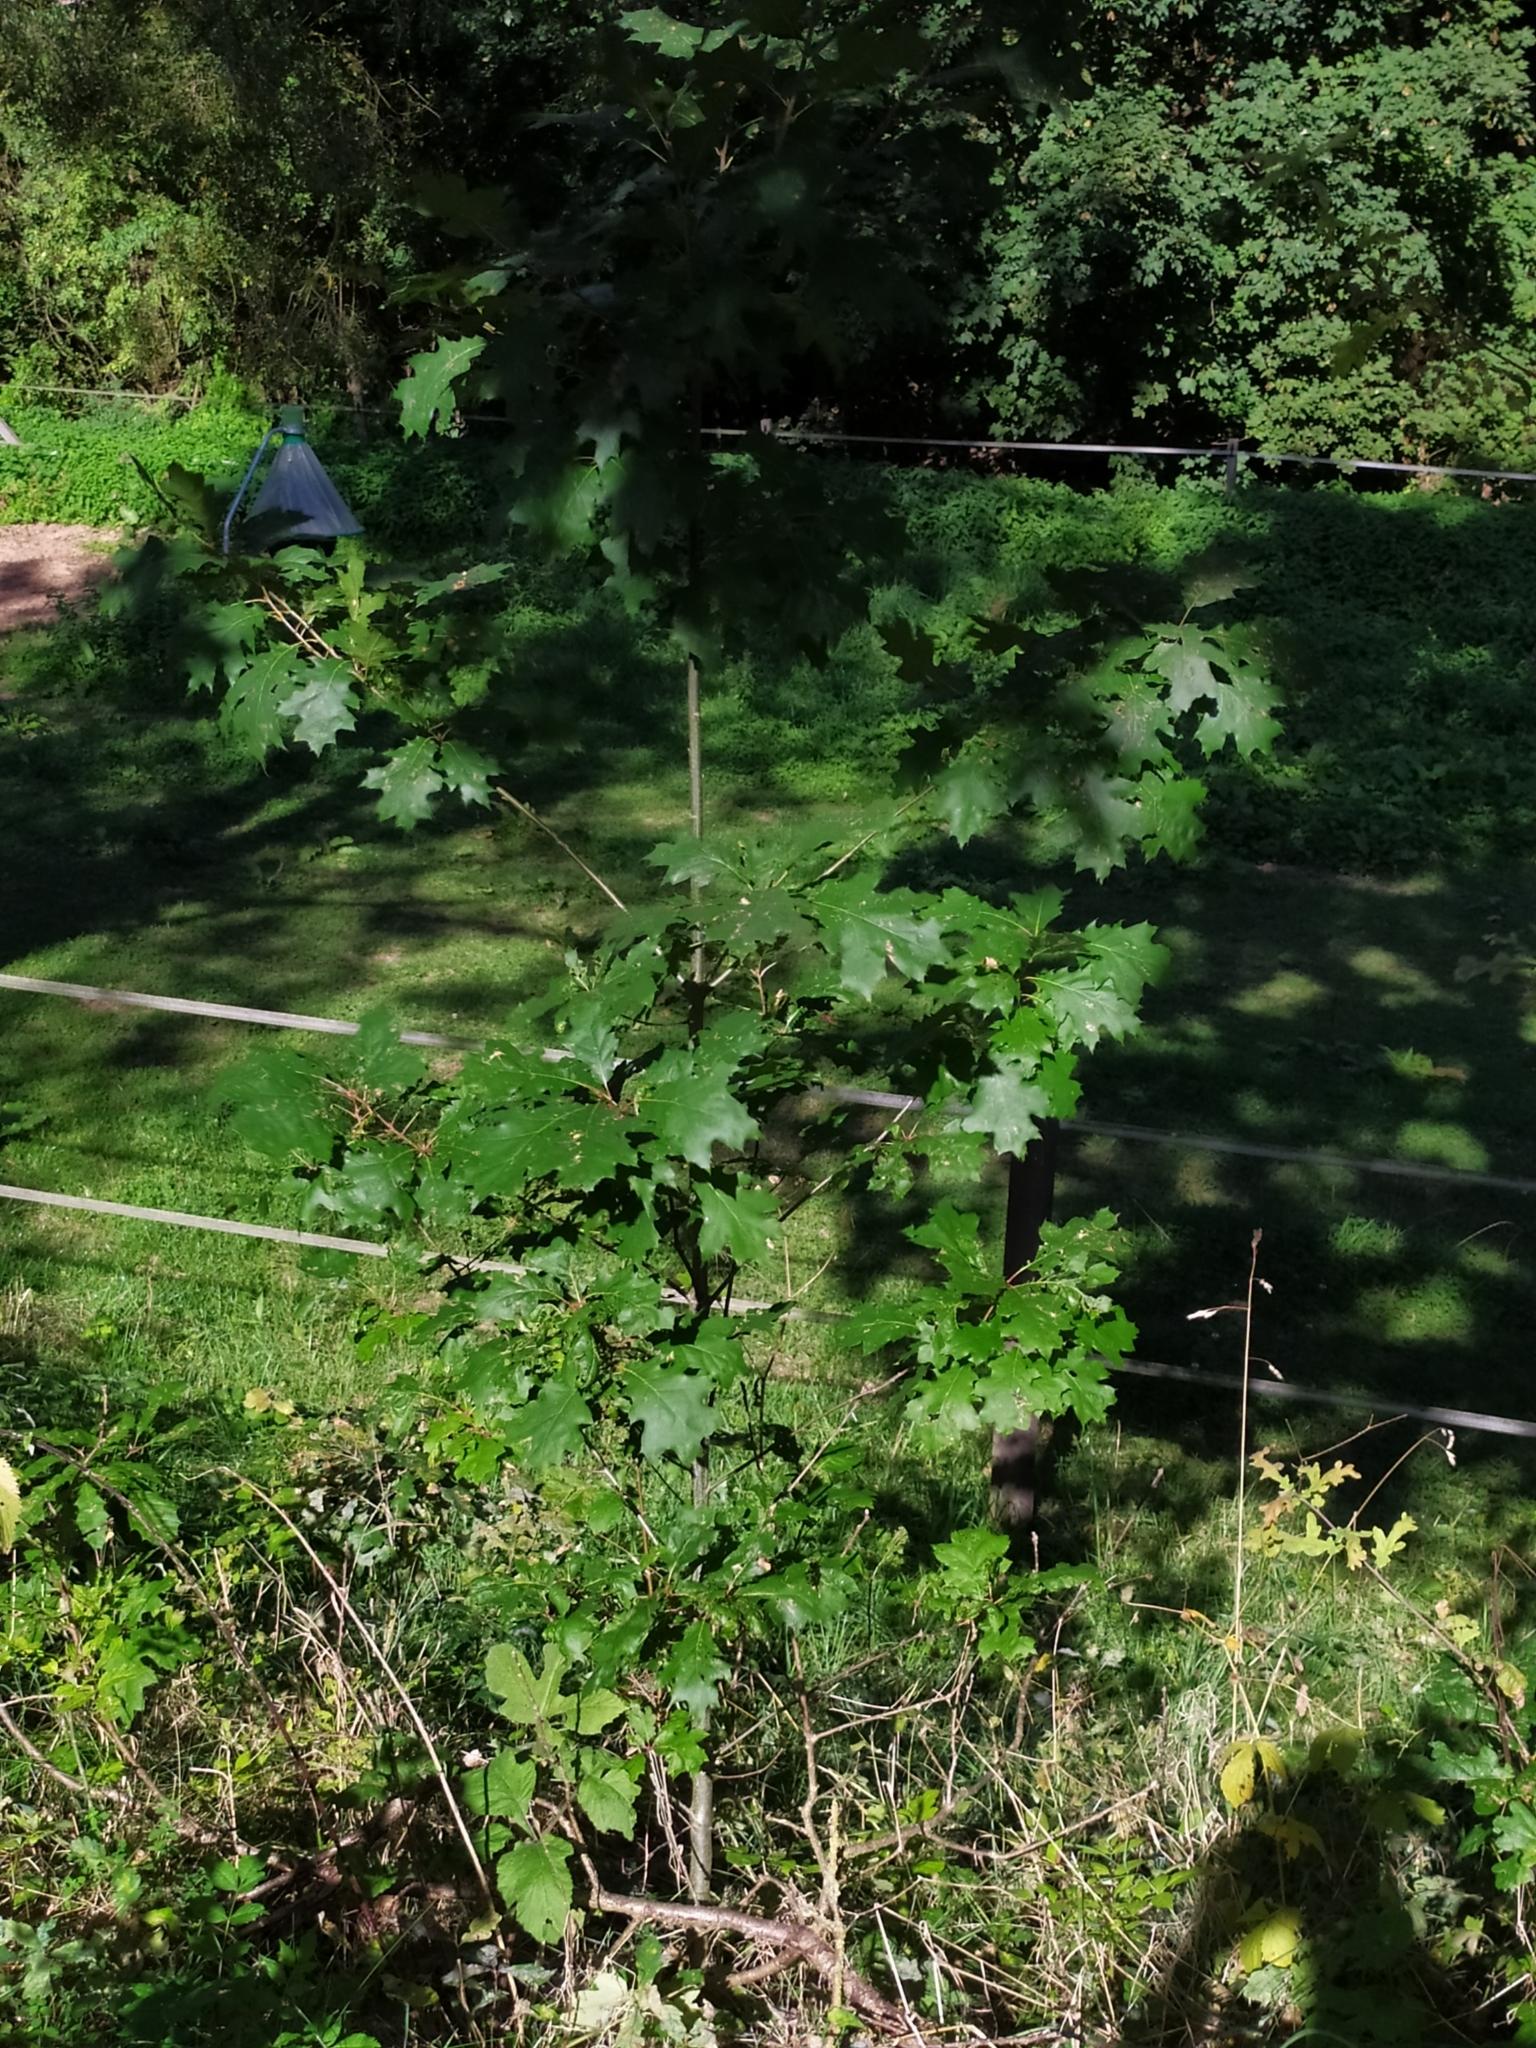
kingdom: Plantae
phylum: Tracheophyta
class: Magnoliopsida
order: Fagales
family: Fagaceae
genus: Quercus
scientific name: Quercus rubra
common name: Red oak
